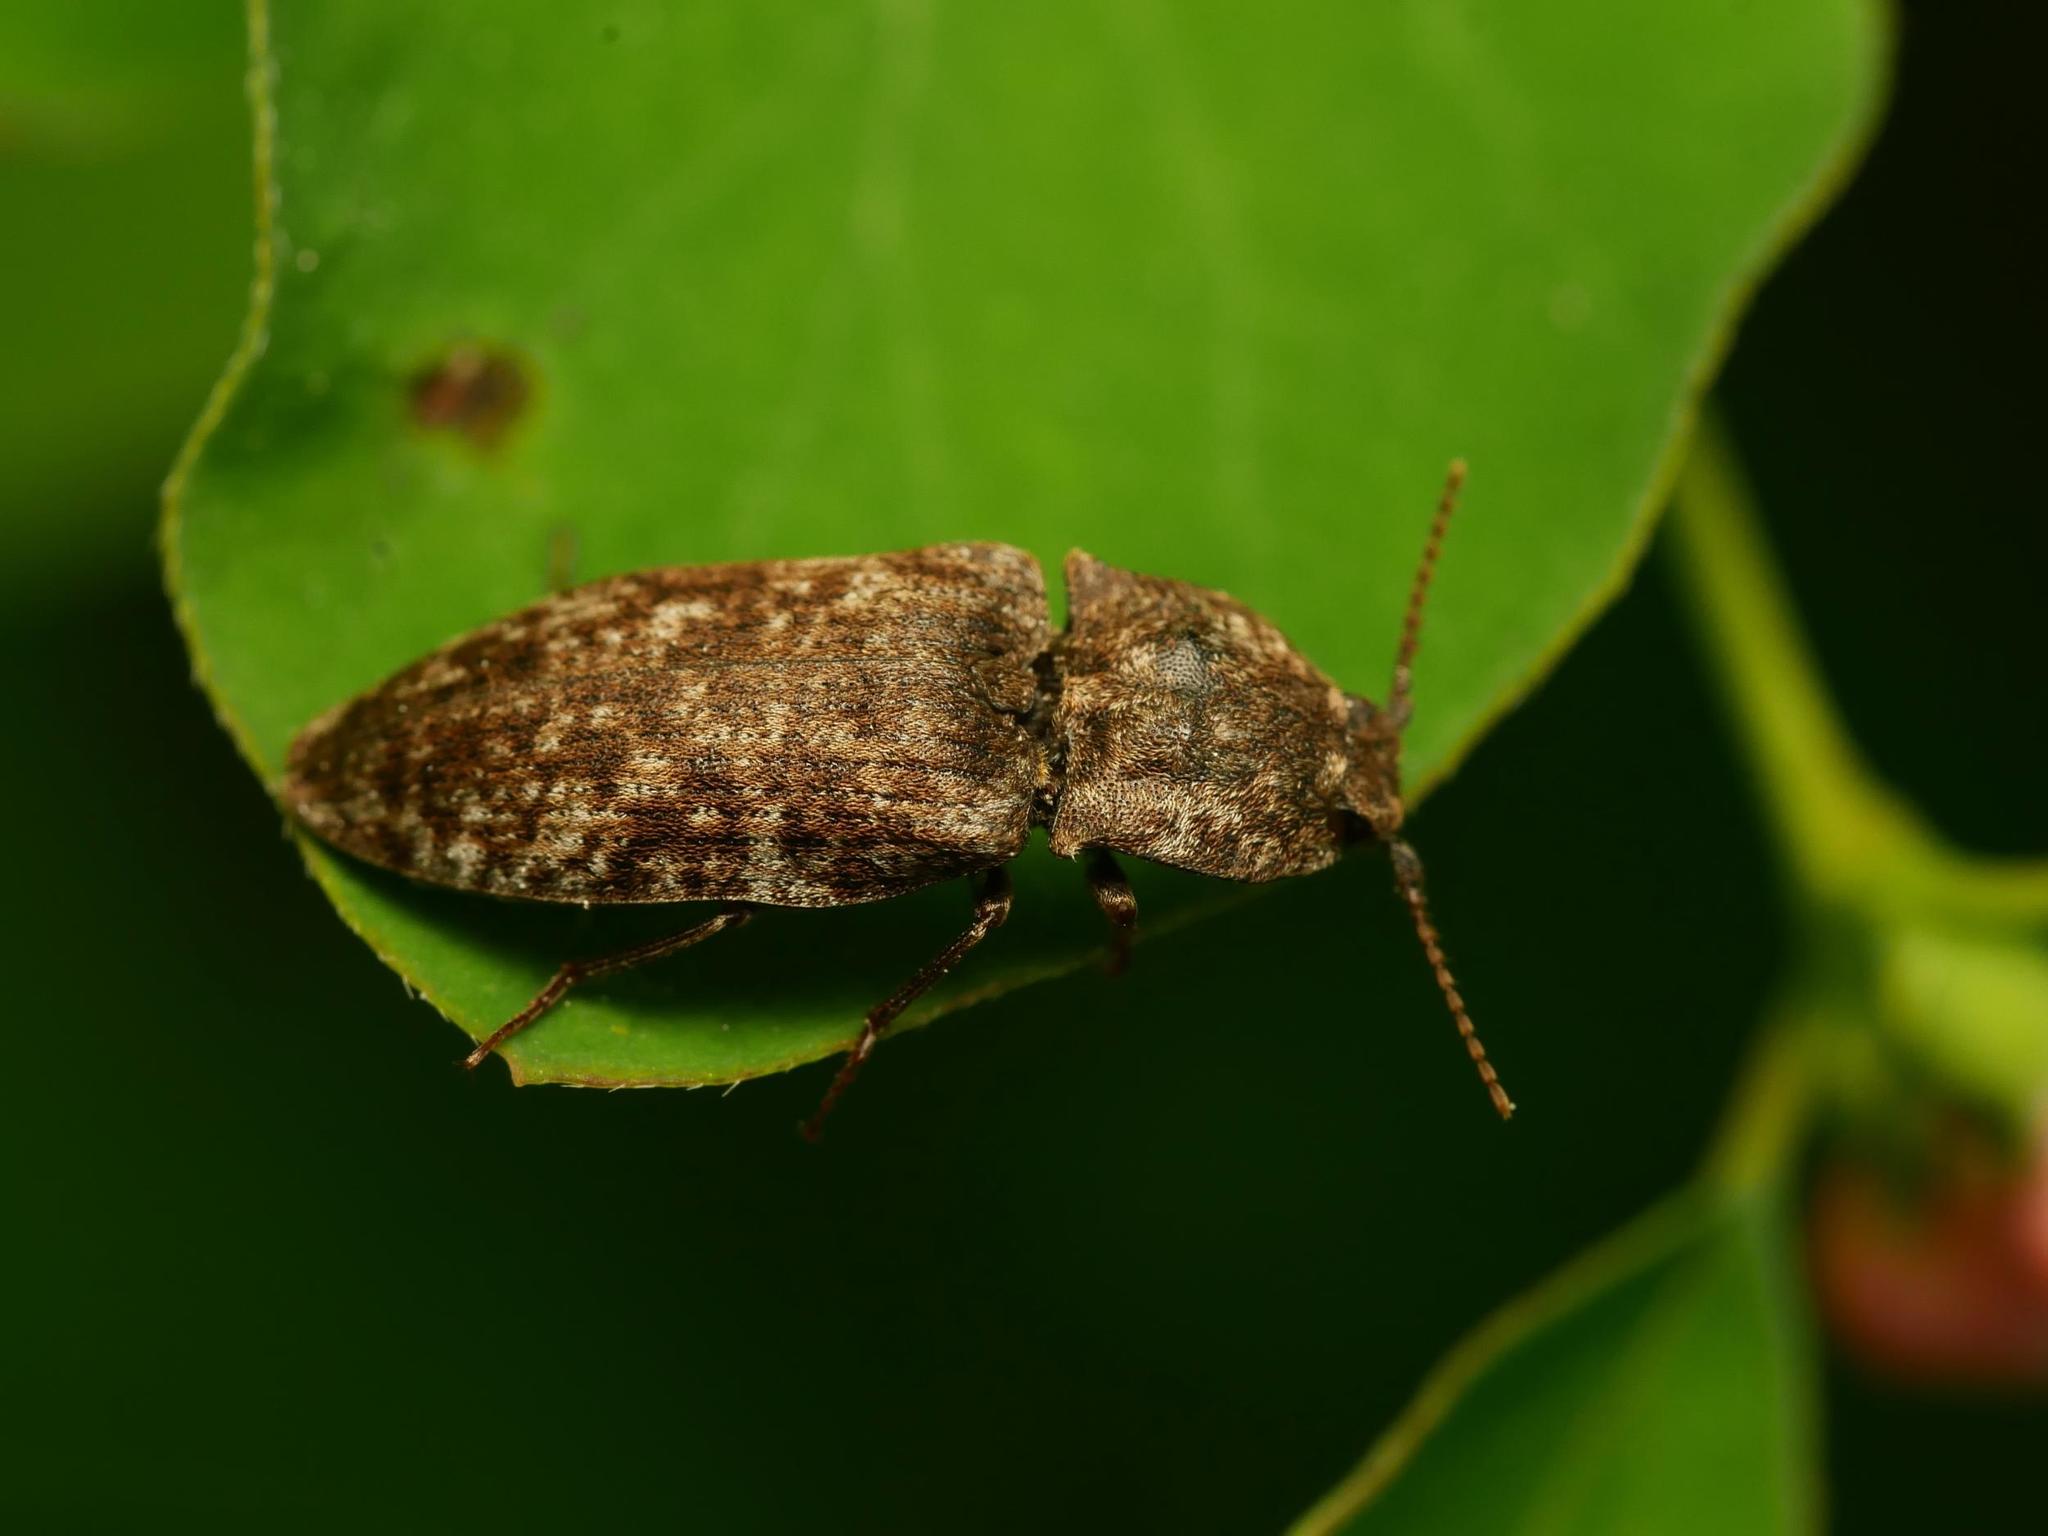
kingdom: Animalia
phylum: Arthropoda
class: Insecta
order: Coleoptera
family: Elateridae
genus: Agrypnus
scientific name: Agrypnus murinus
